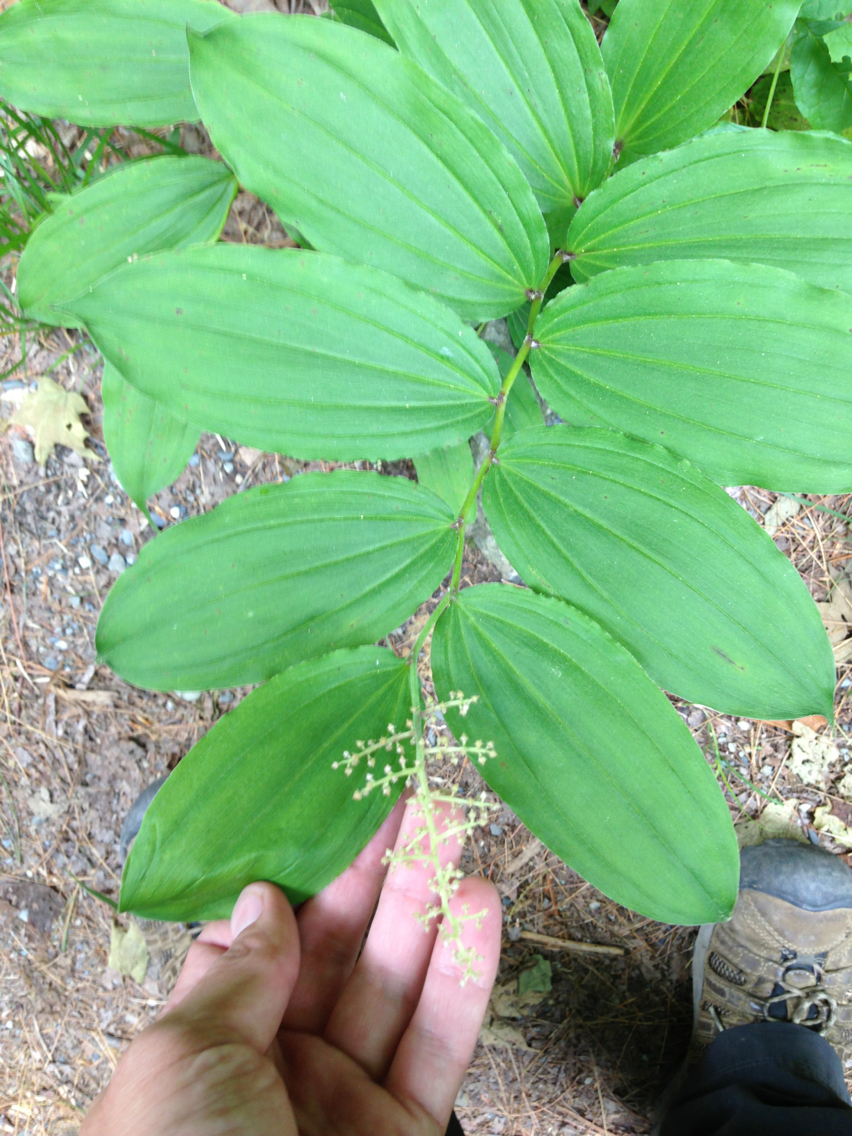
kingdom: Plantae
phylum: Tracheophyta
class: Liliopsida
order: Asparagales
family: Asparagaceae
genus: Maianthemum
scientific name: Maianthemum racemosum
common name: False spikenard
